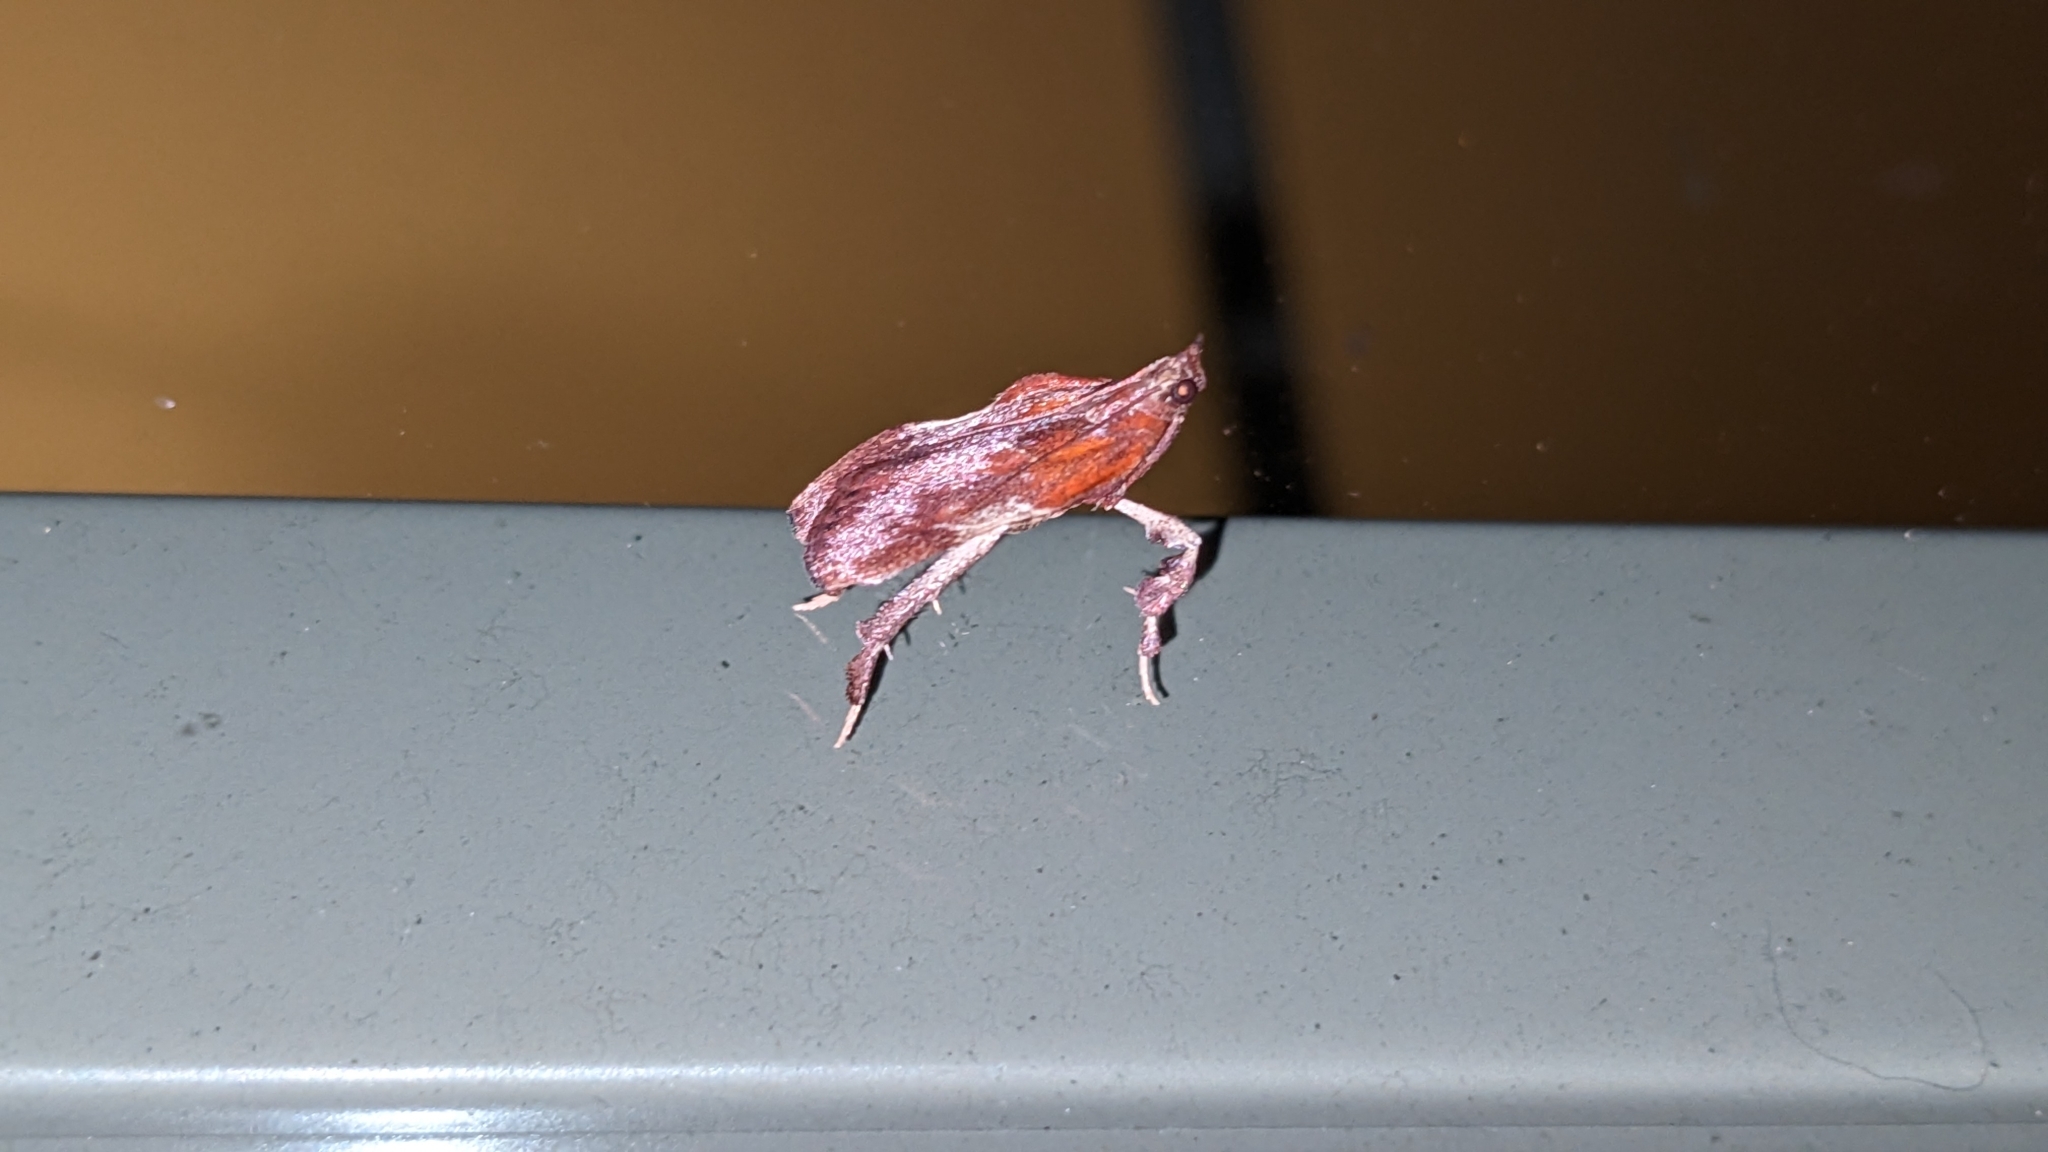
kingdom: Animalia
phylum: Arthropoda
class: Insecta
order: Lepidoptera
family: Pyralidae
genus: Galasa
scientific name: Galasa nigrinodis
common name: Boxwood leaftier moth
